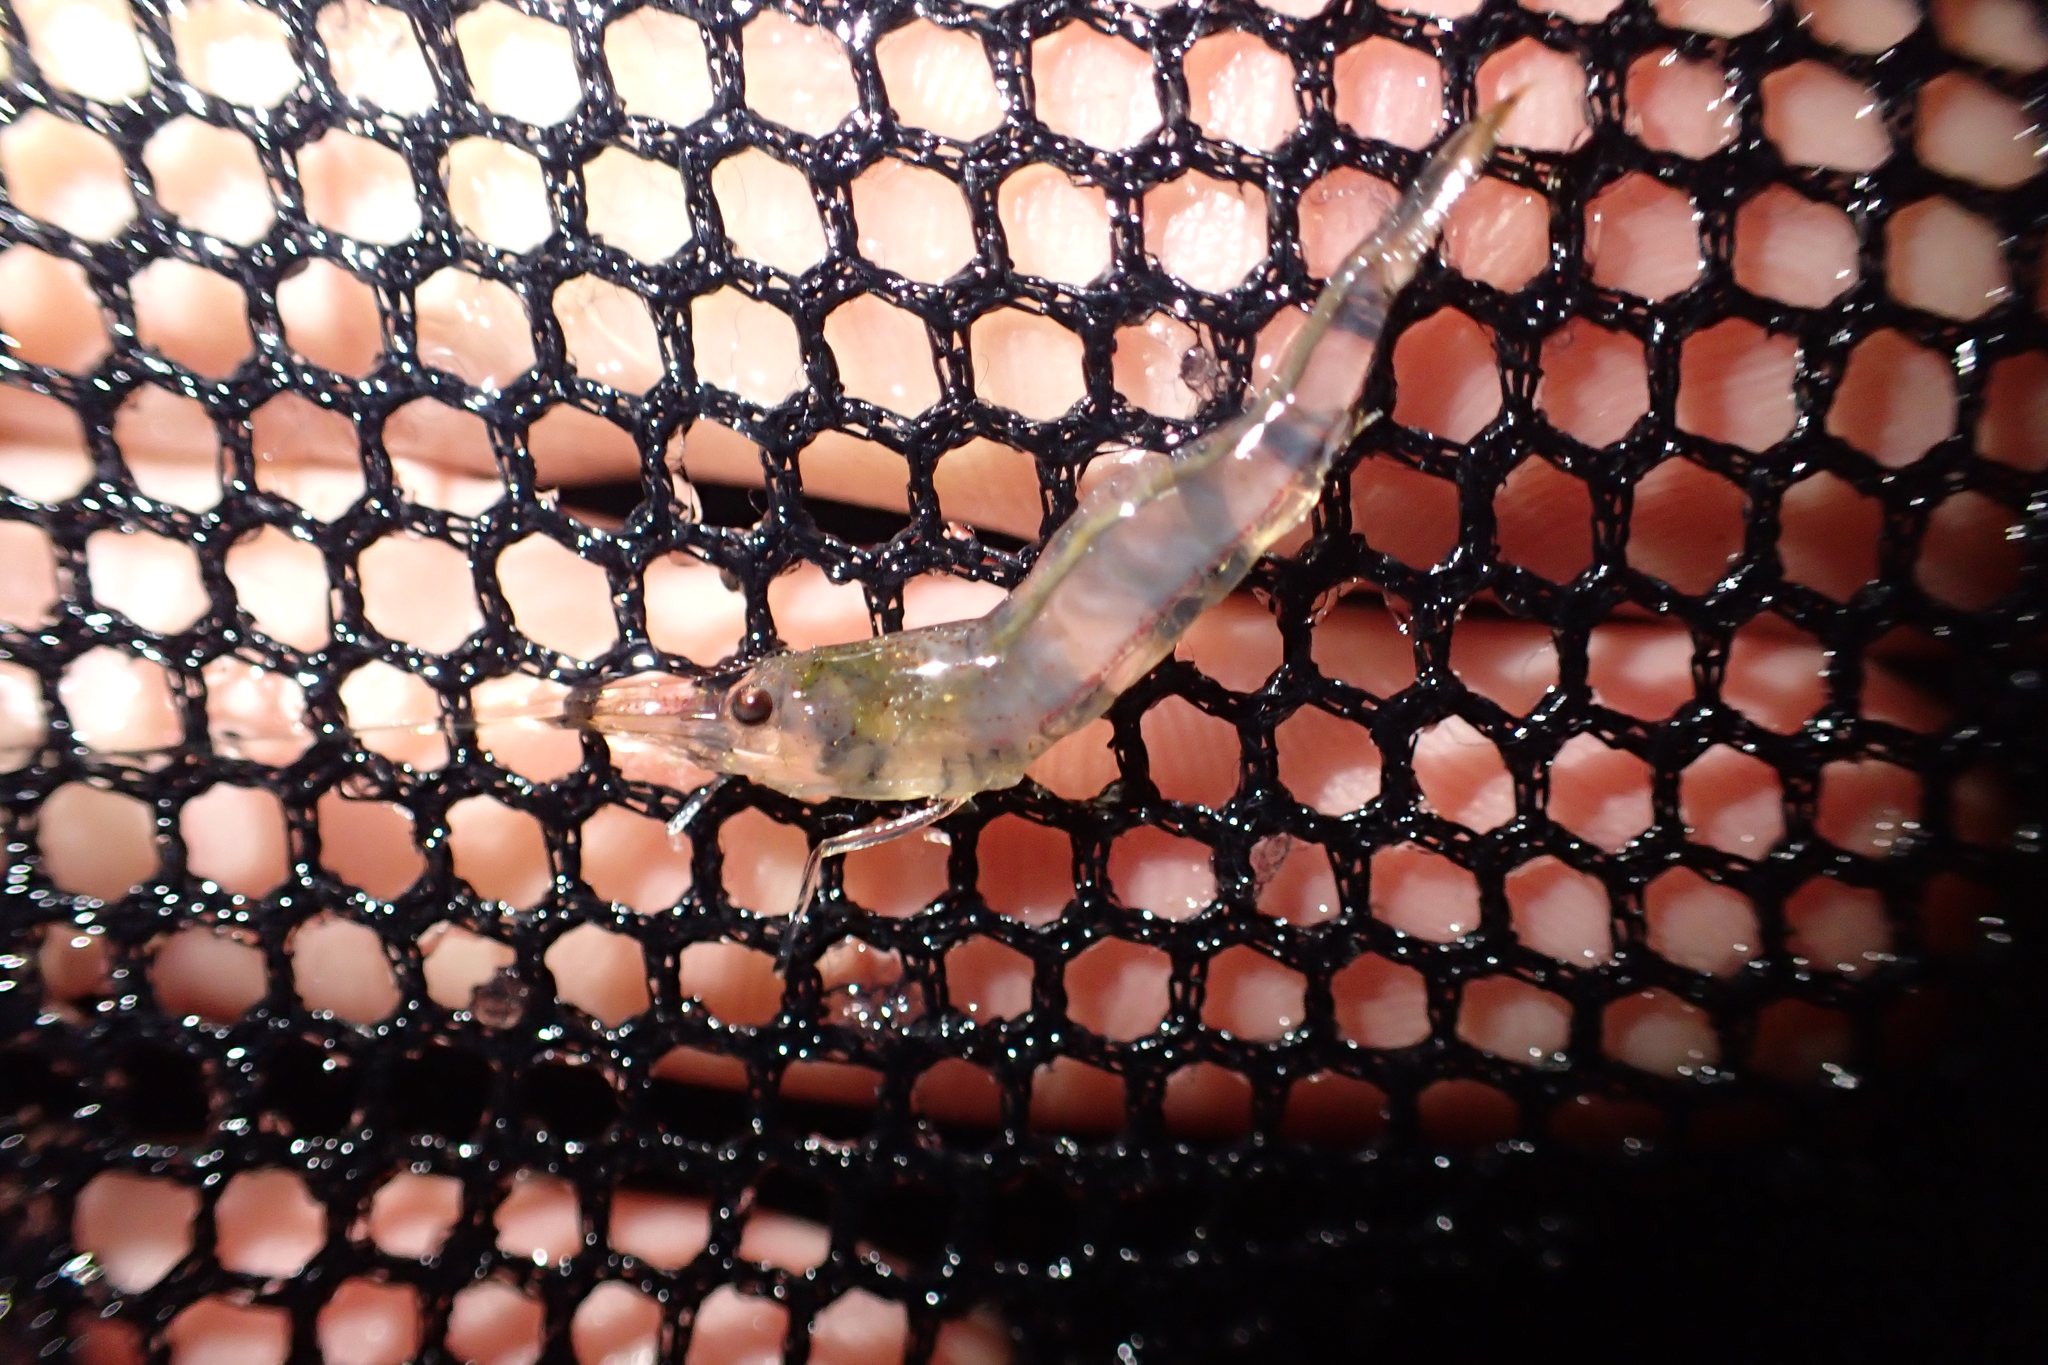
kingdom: Animalia
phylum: Arthropoda
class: Malacostraca
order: Decapoda
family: Atyidae
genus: Paratya
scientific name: Paratya curvirostris
